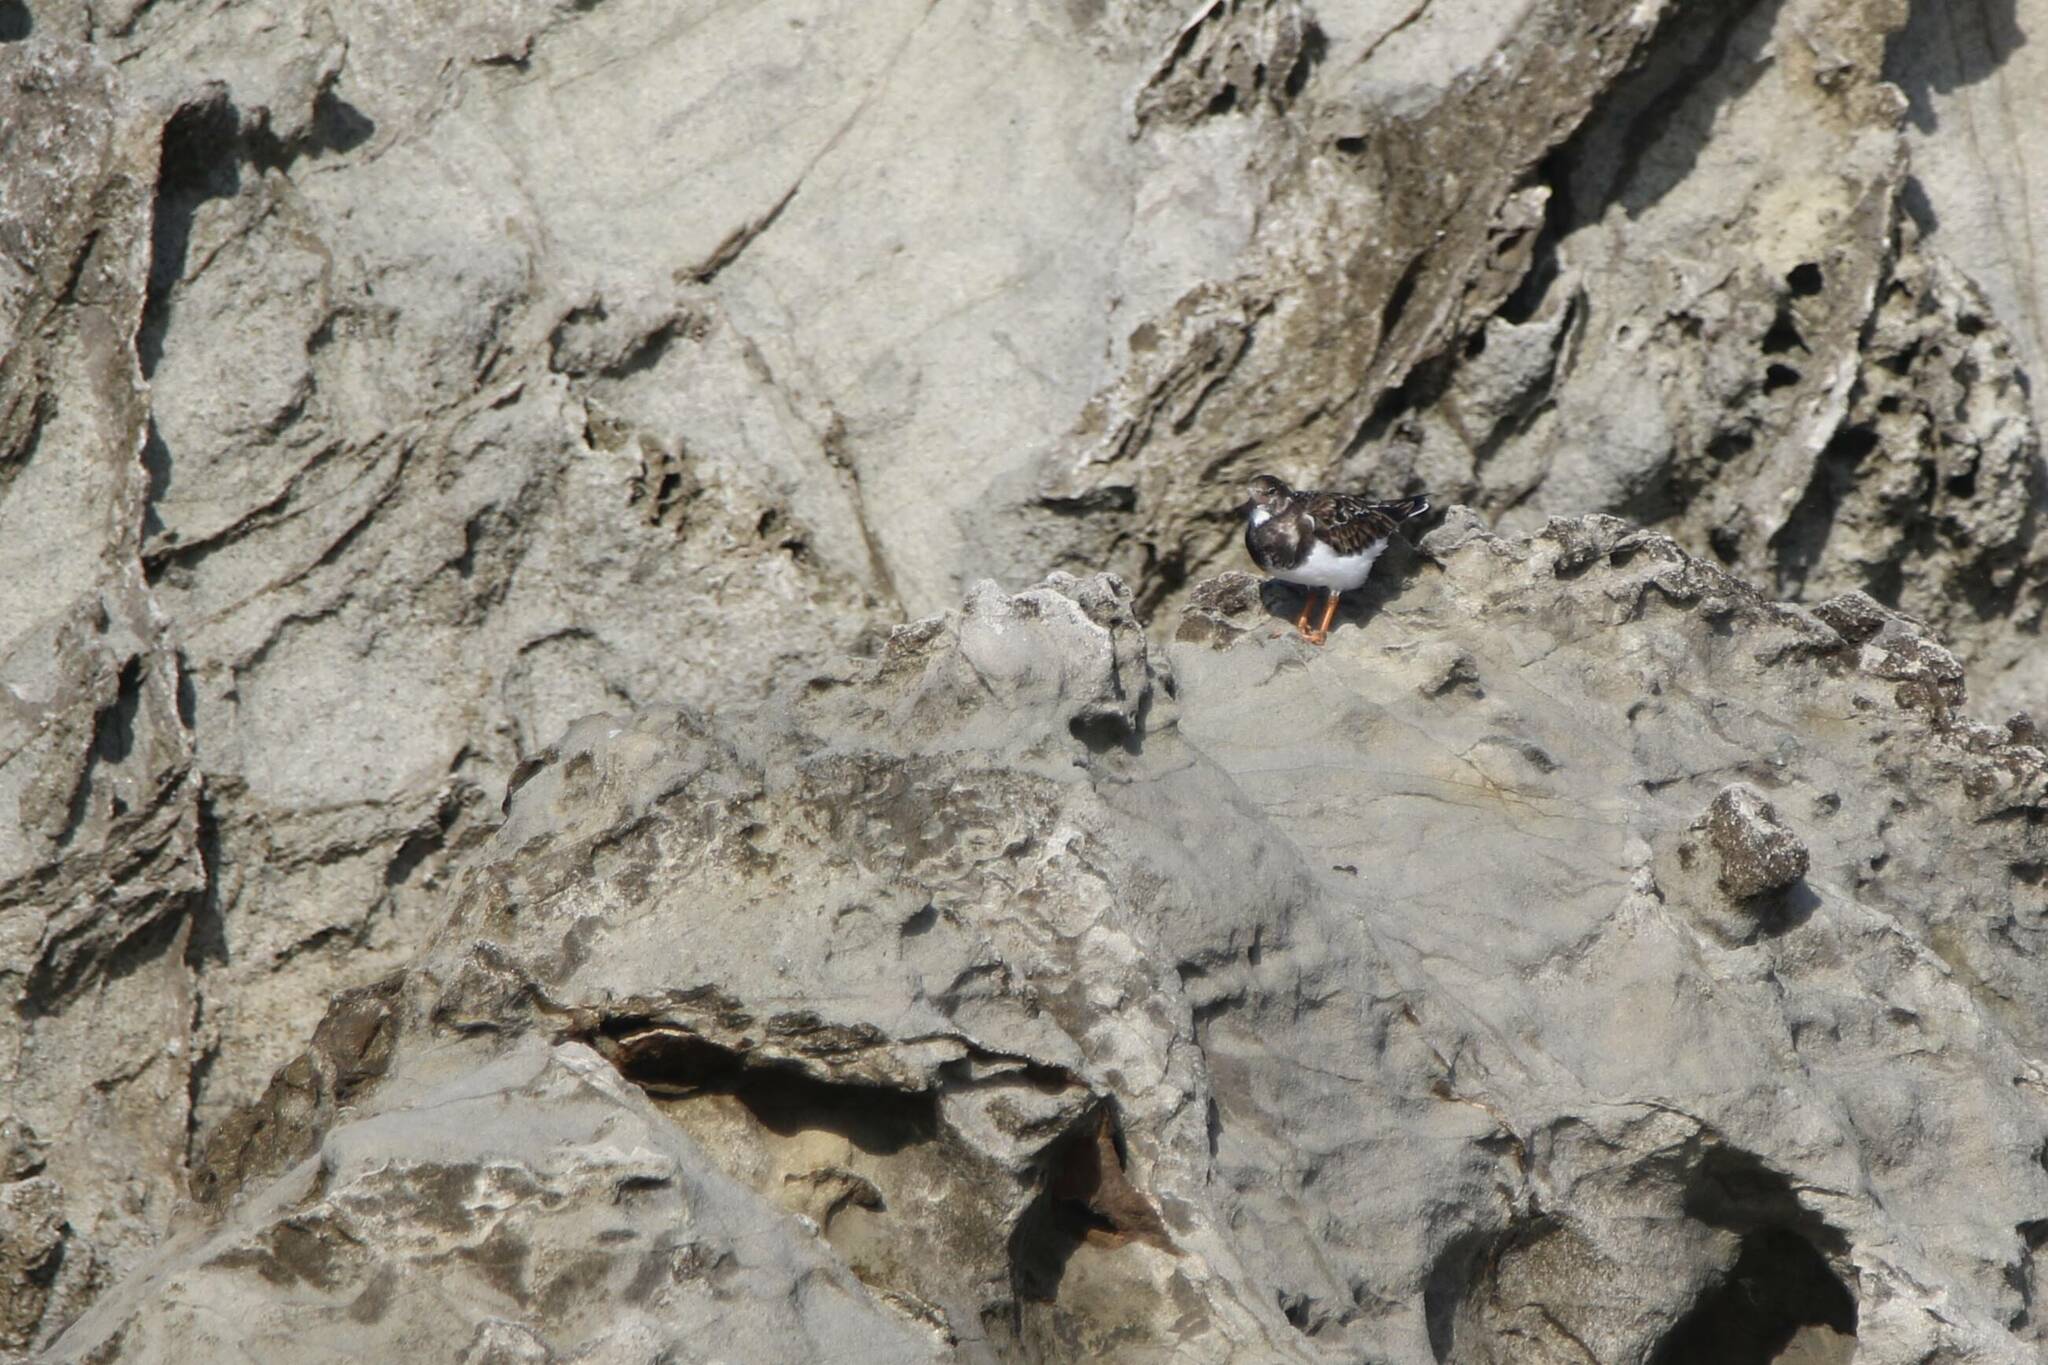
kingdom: Animalia
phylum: Chordata
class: Aves
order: Charadriiformes
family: Scolopacidae
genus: Arenaria
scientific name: Arenaria interpres
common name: Ruddy turnstone
